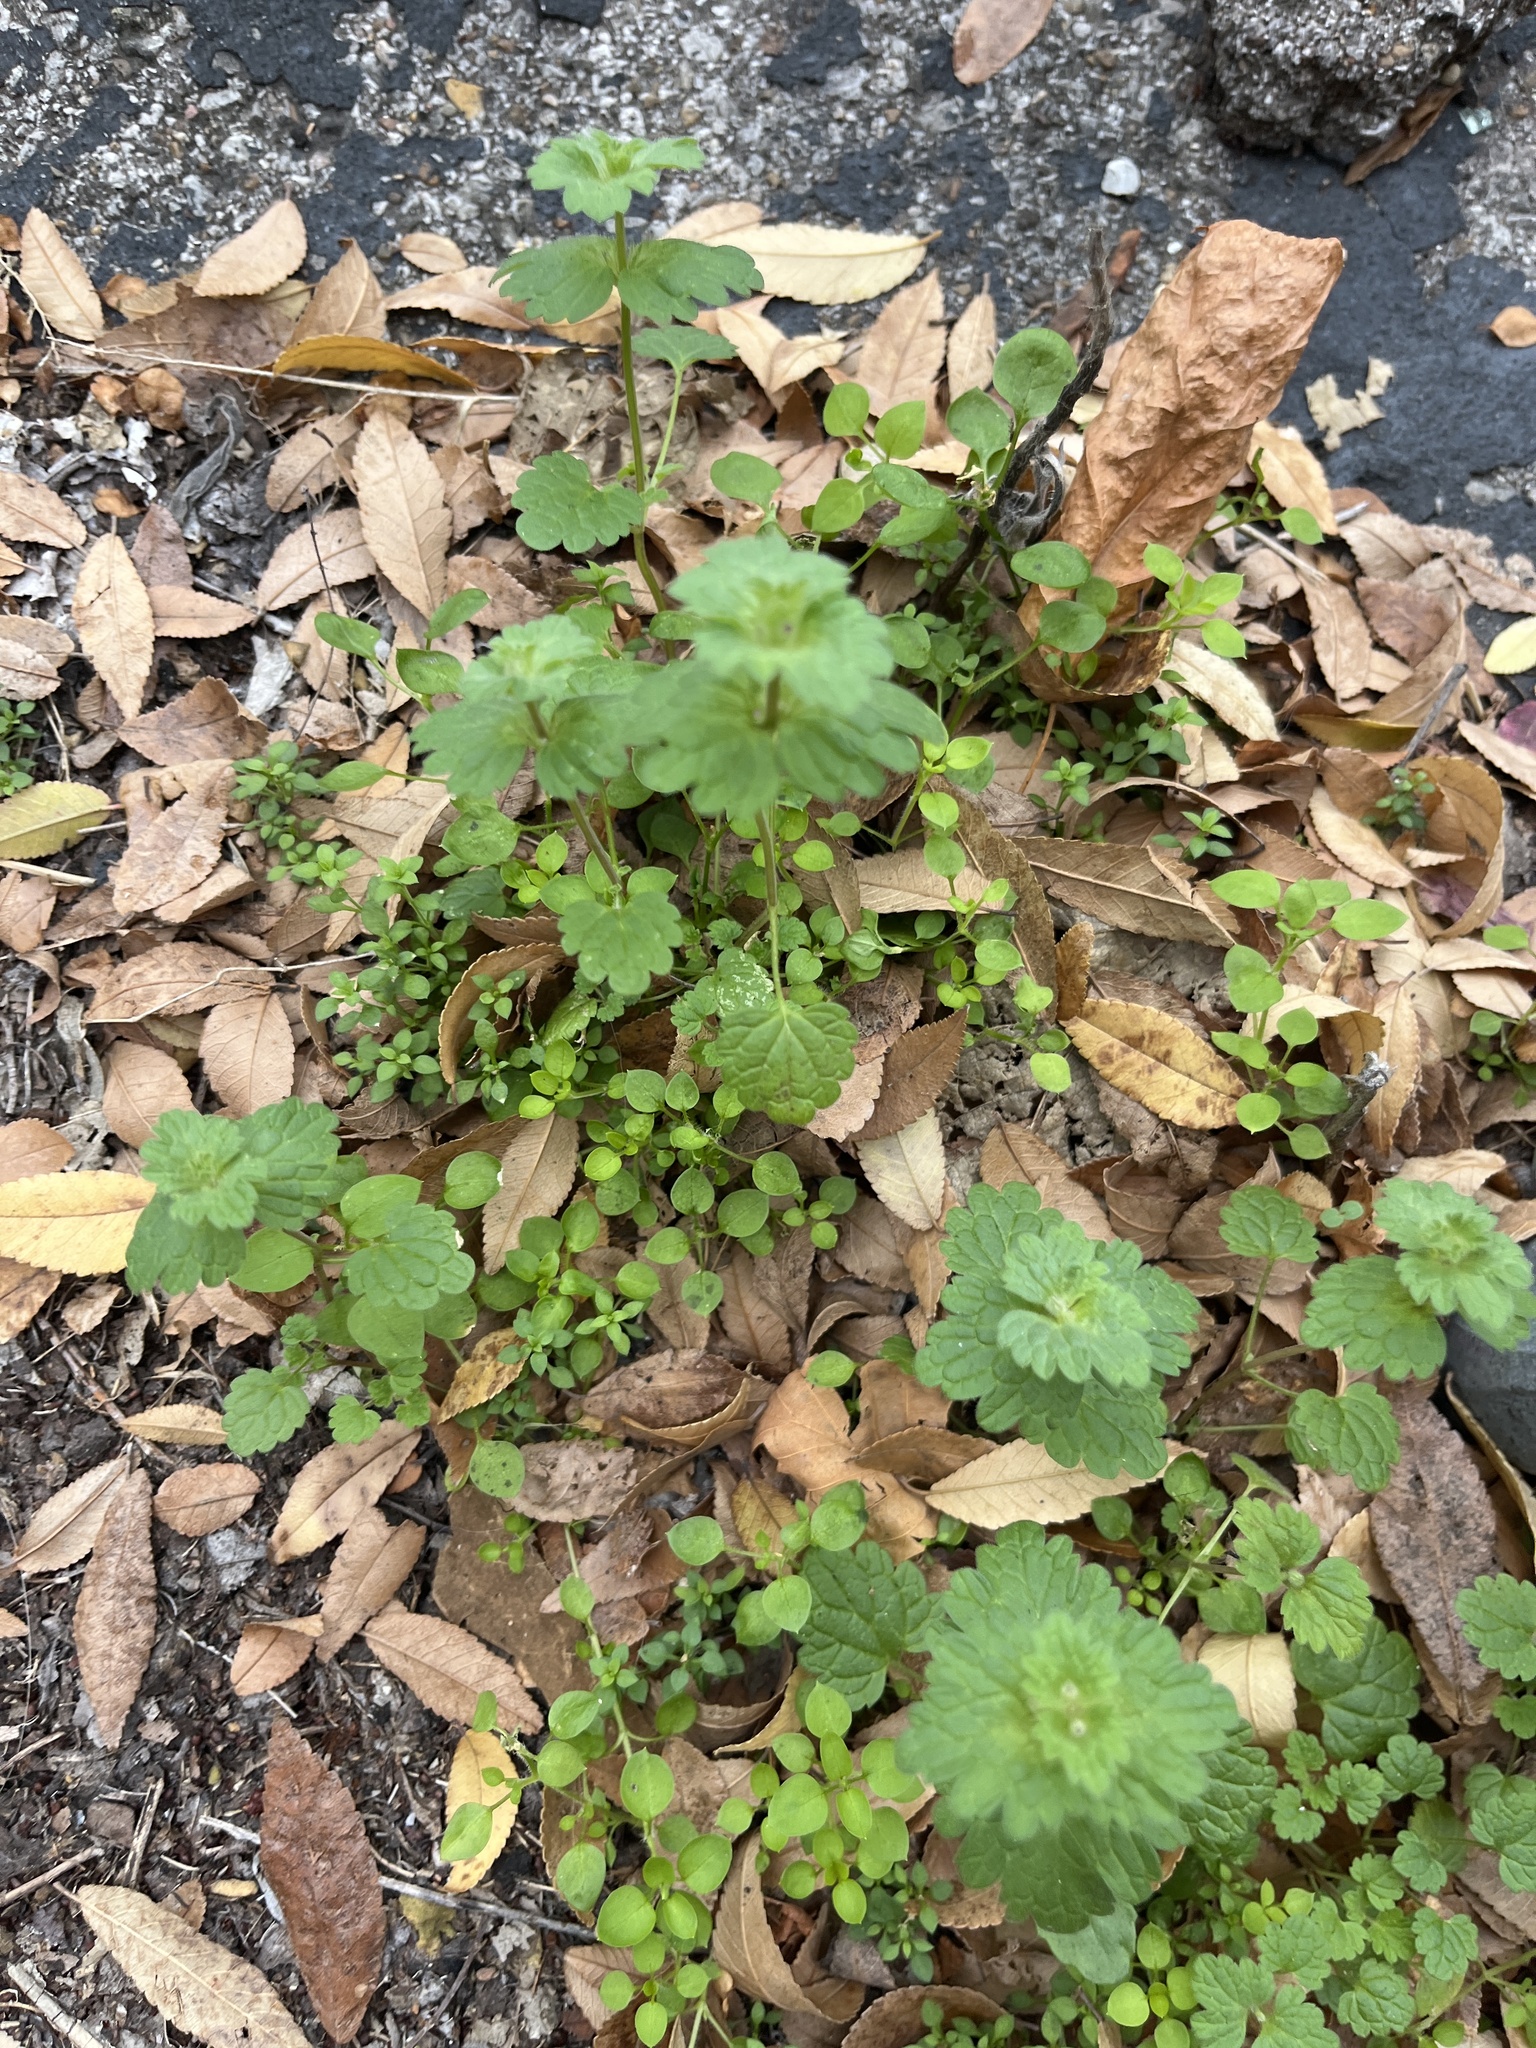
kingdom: Plantae
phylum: Tracheophyta
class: Magnoliopsida
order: Lamiales
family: Lamiaceae
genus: Lamium
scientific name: Lamium amplexicaule
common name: Henbit dead-nettle
